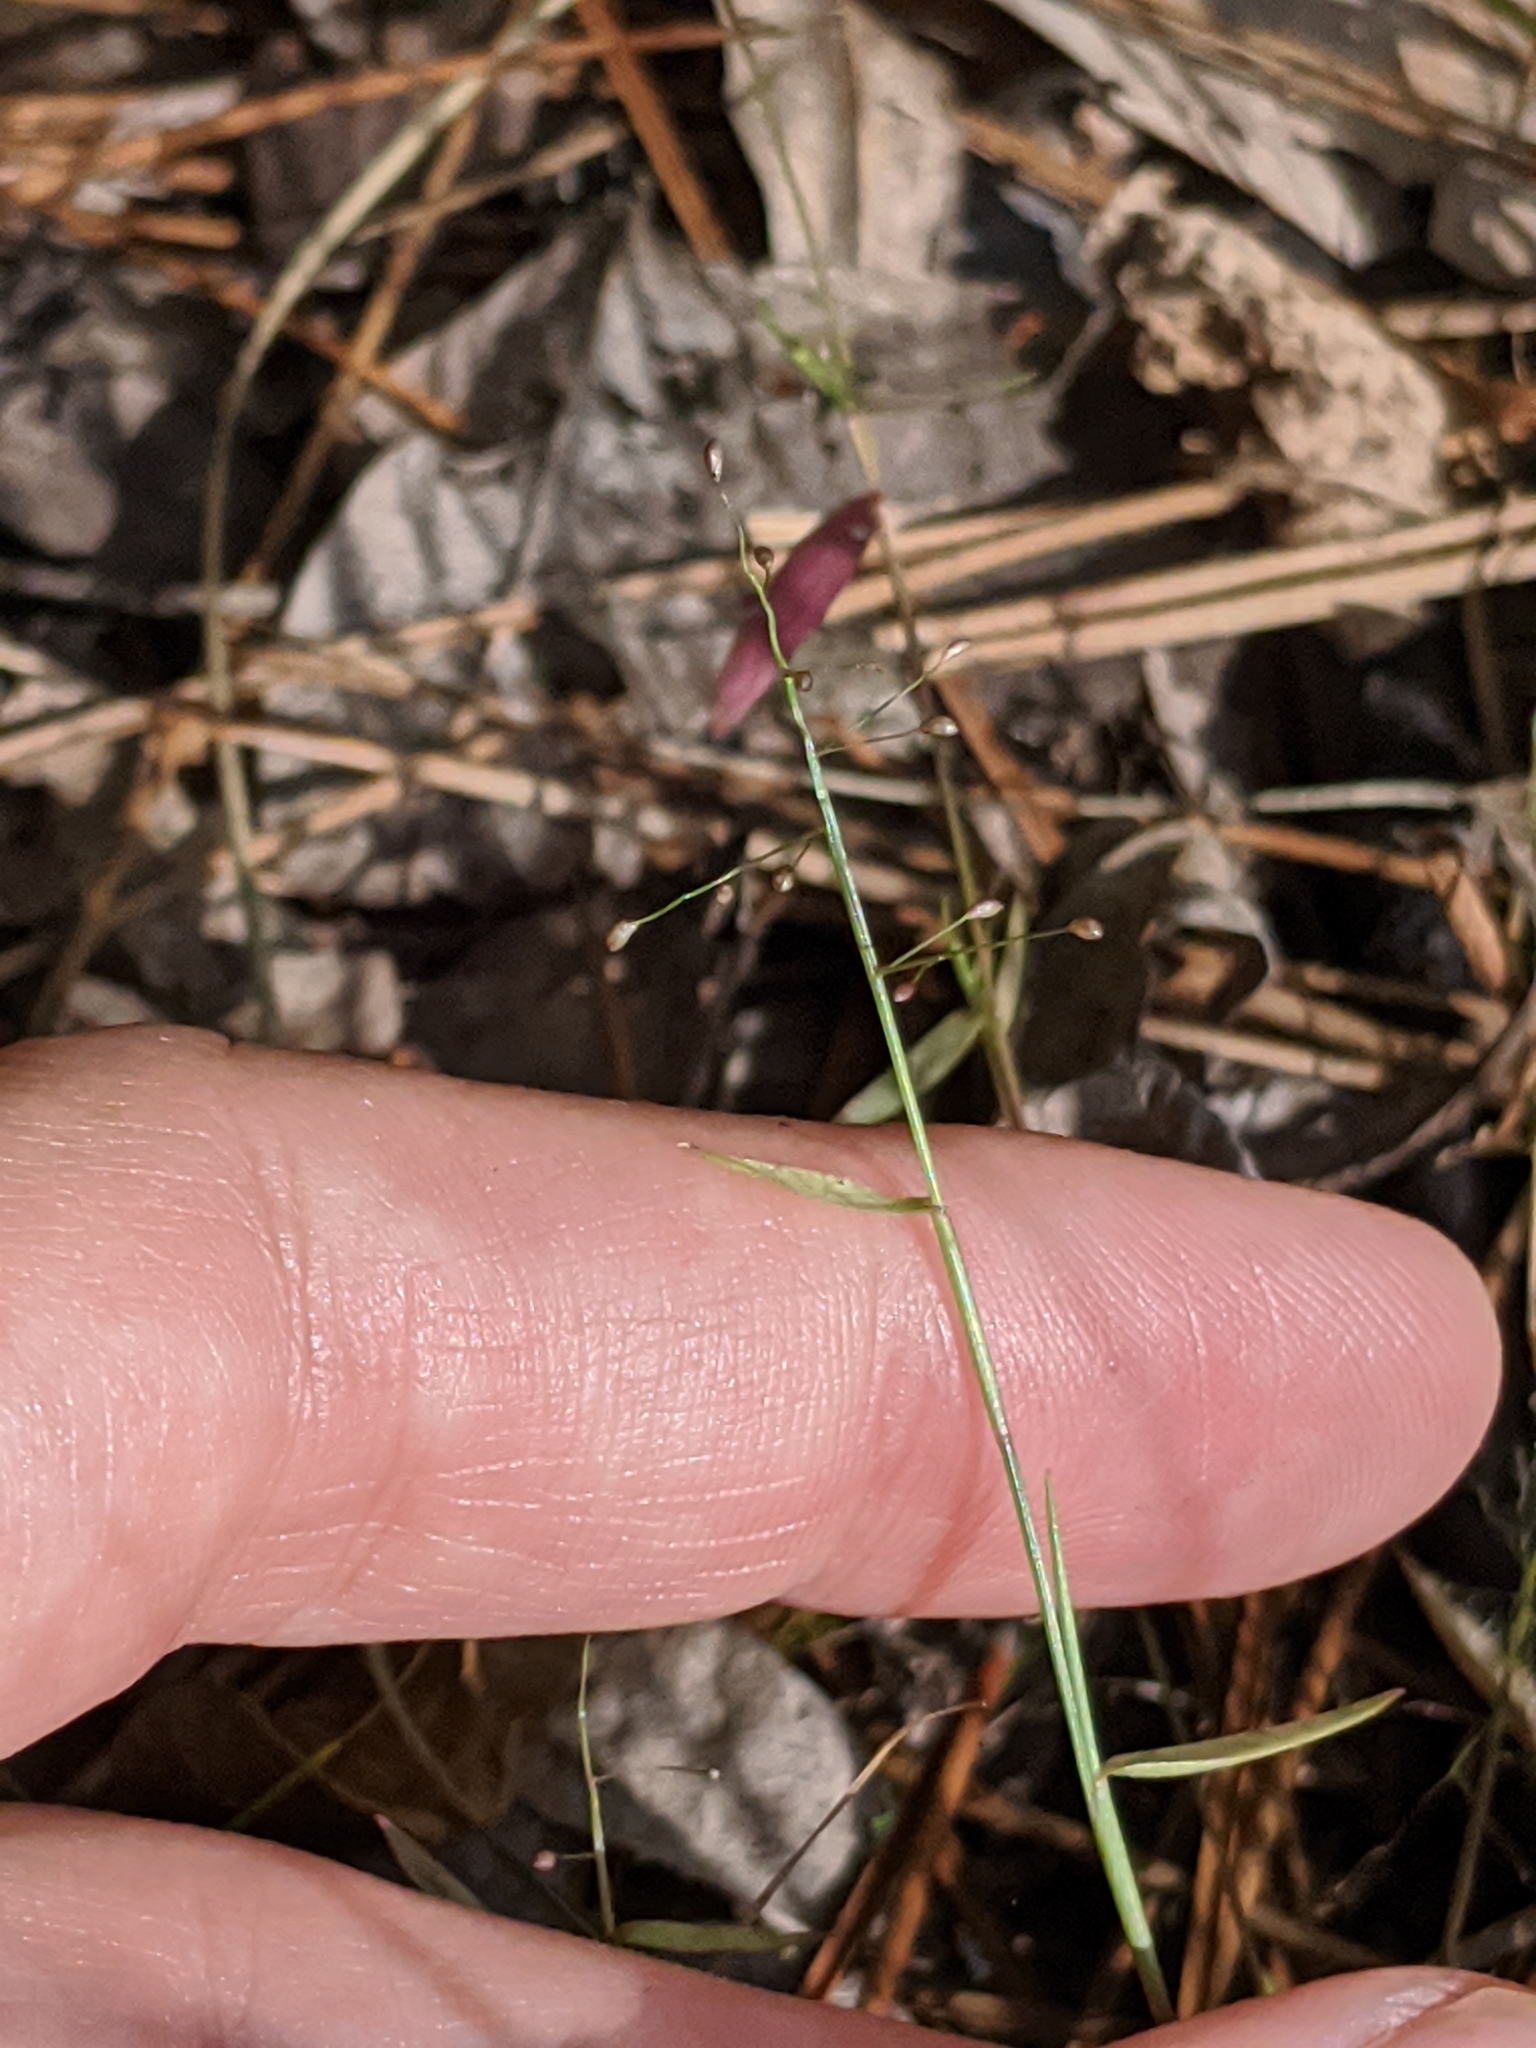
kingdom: Plantae
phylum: Tracheophyta
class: Liliopsida
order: Poales
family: Poaceae
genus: Dichanthelium
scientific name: Dichanthelium ensifolium
